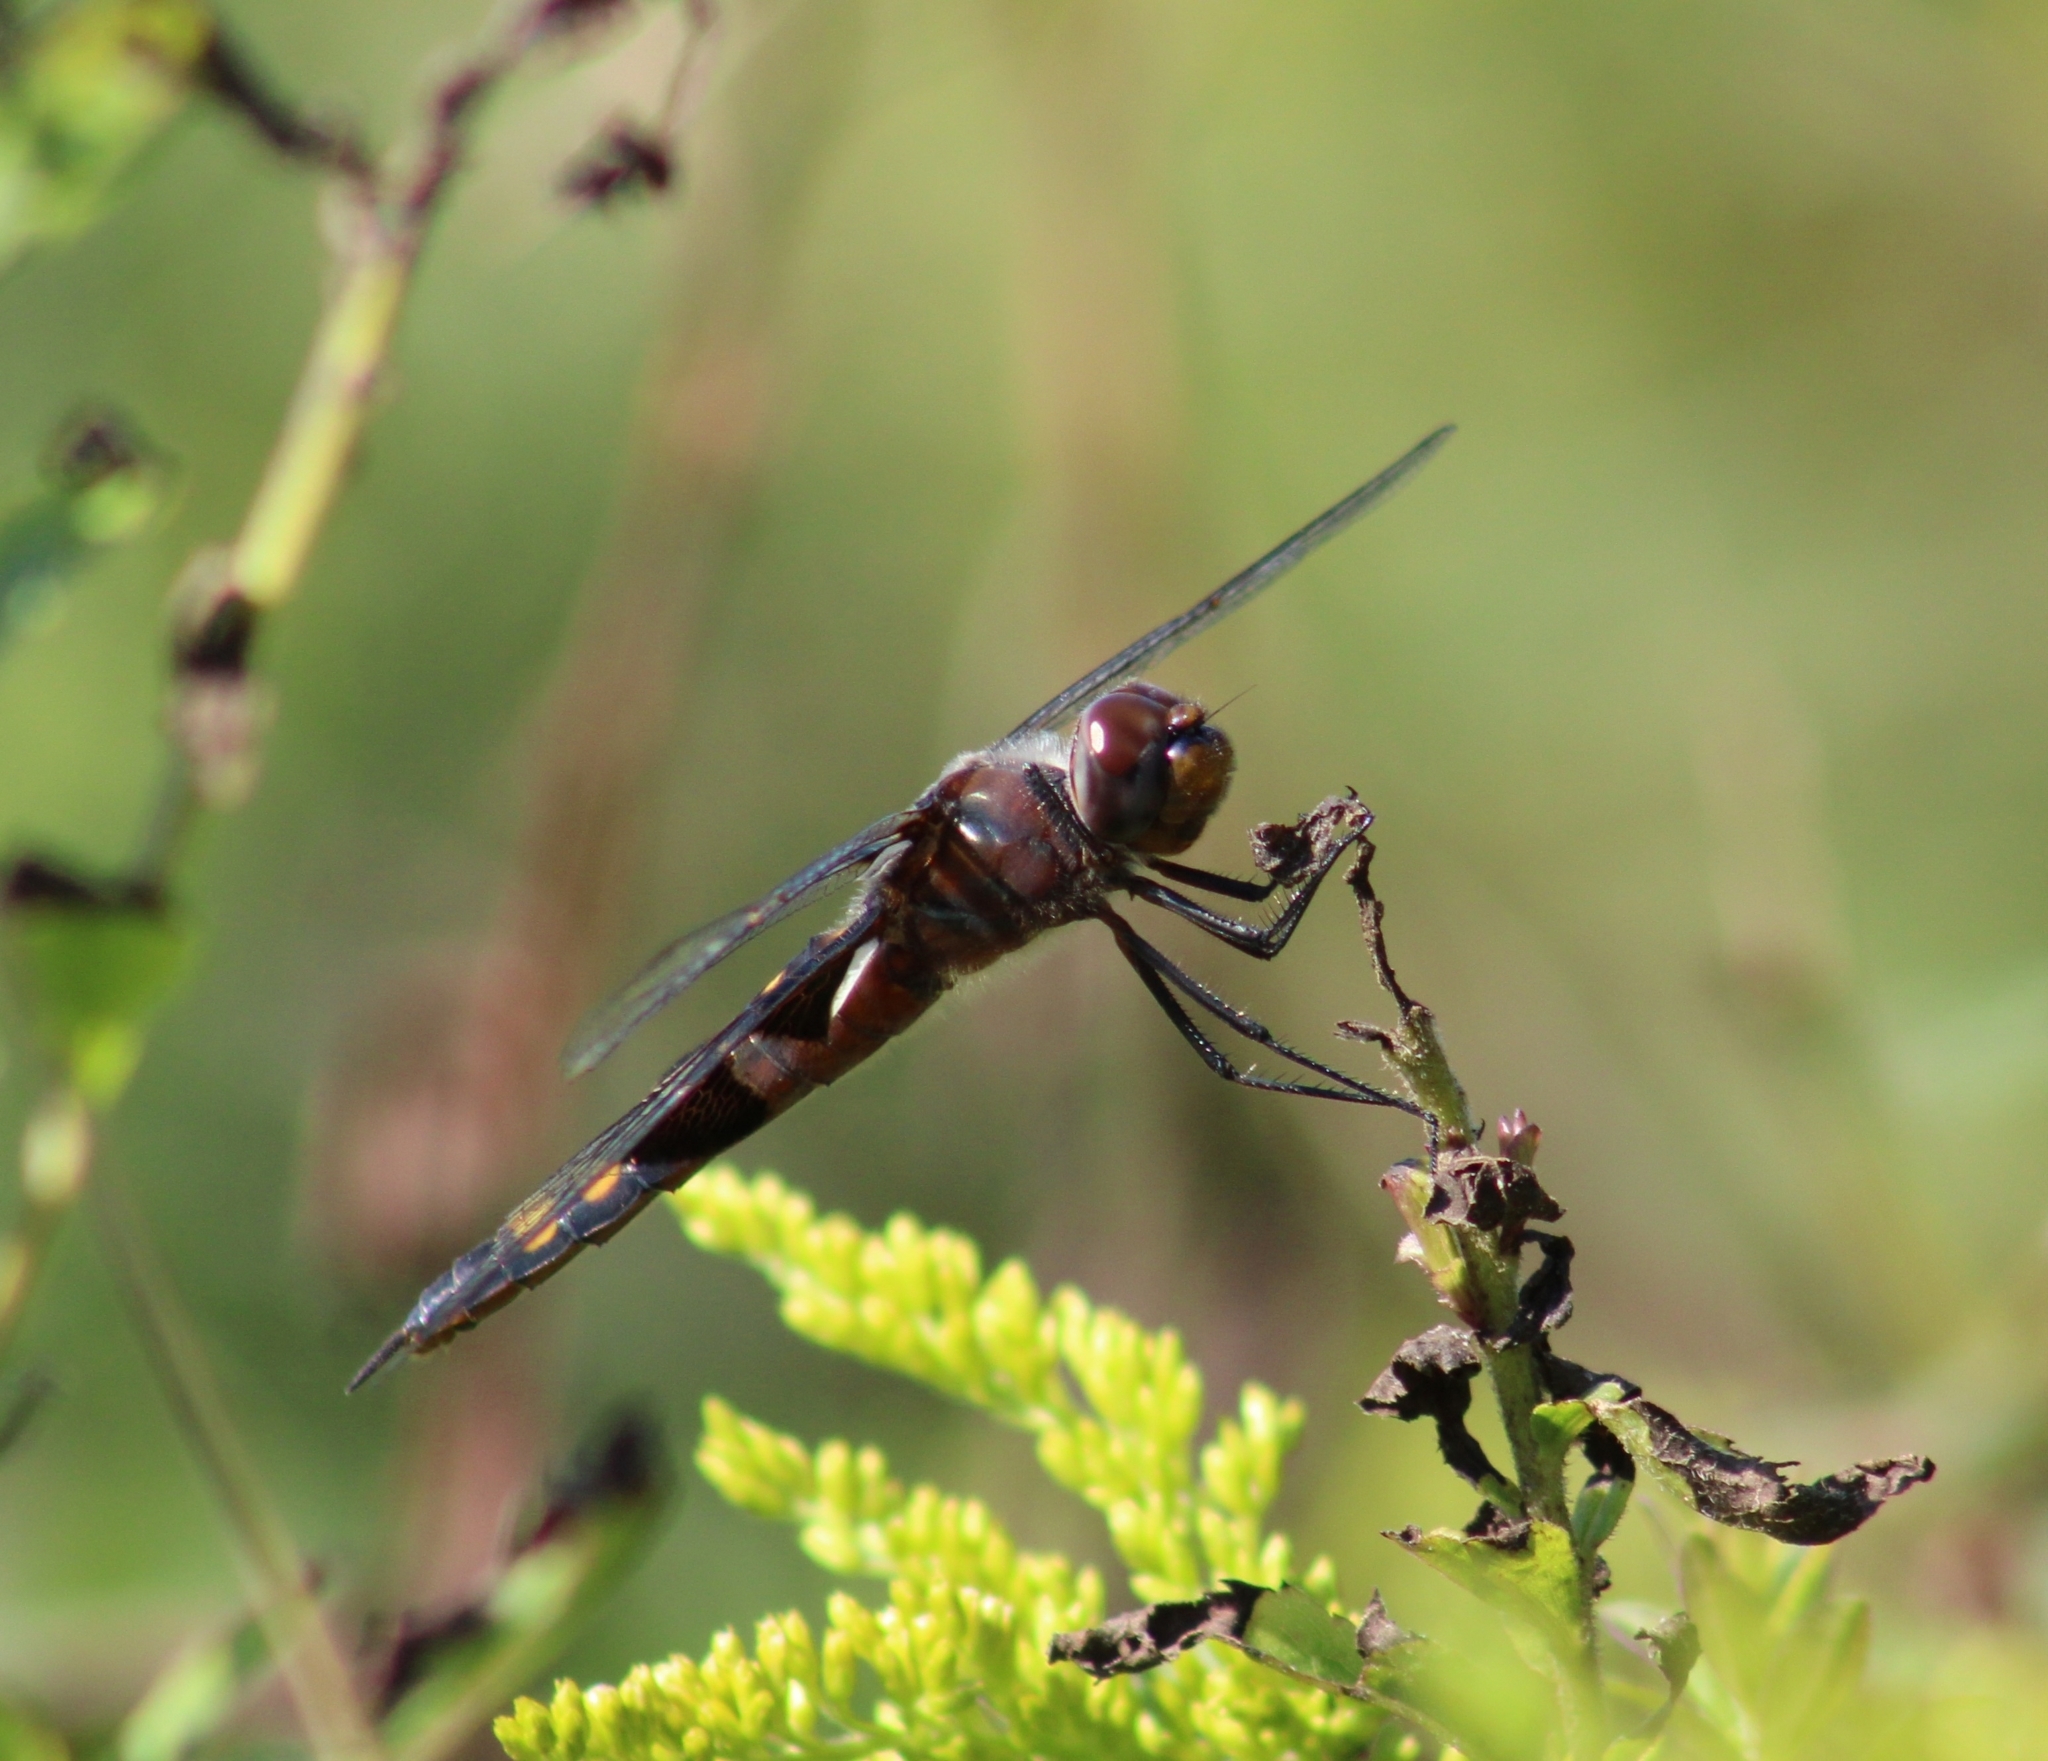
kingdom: Animalia
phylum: Arthropoda
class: Insecta
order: Odonata
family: Libellulidae
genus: Tramea
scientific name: Tramea lacerata
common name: Black saddlebags
